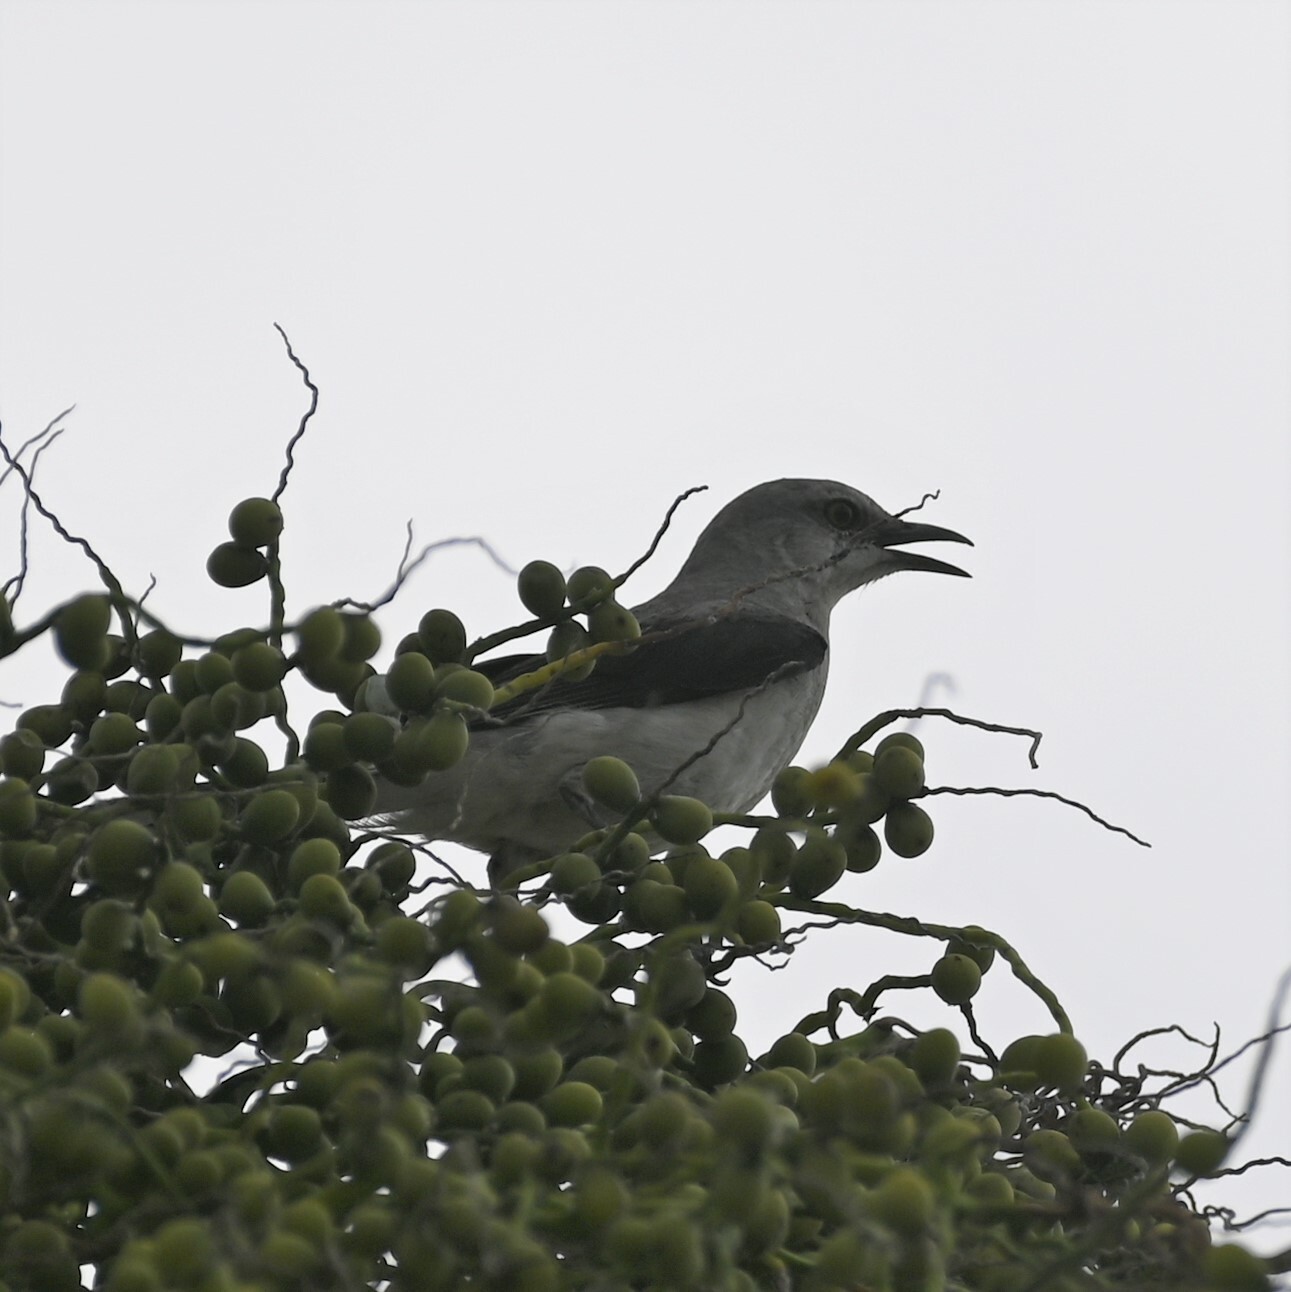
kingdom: Animalia
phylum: Chordata
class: Aves
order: Passeriformes
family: Mimidae
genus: Mimus
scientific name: Mimus gilvus
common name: Tropical mockingbird
